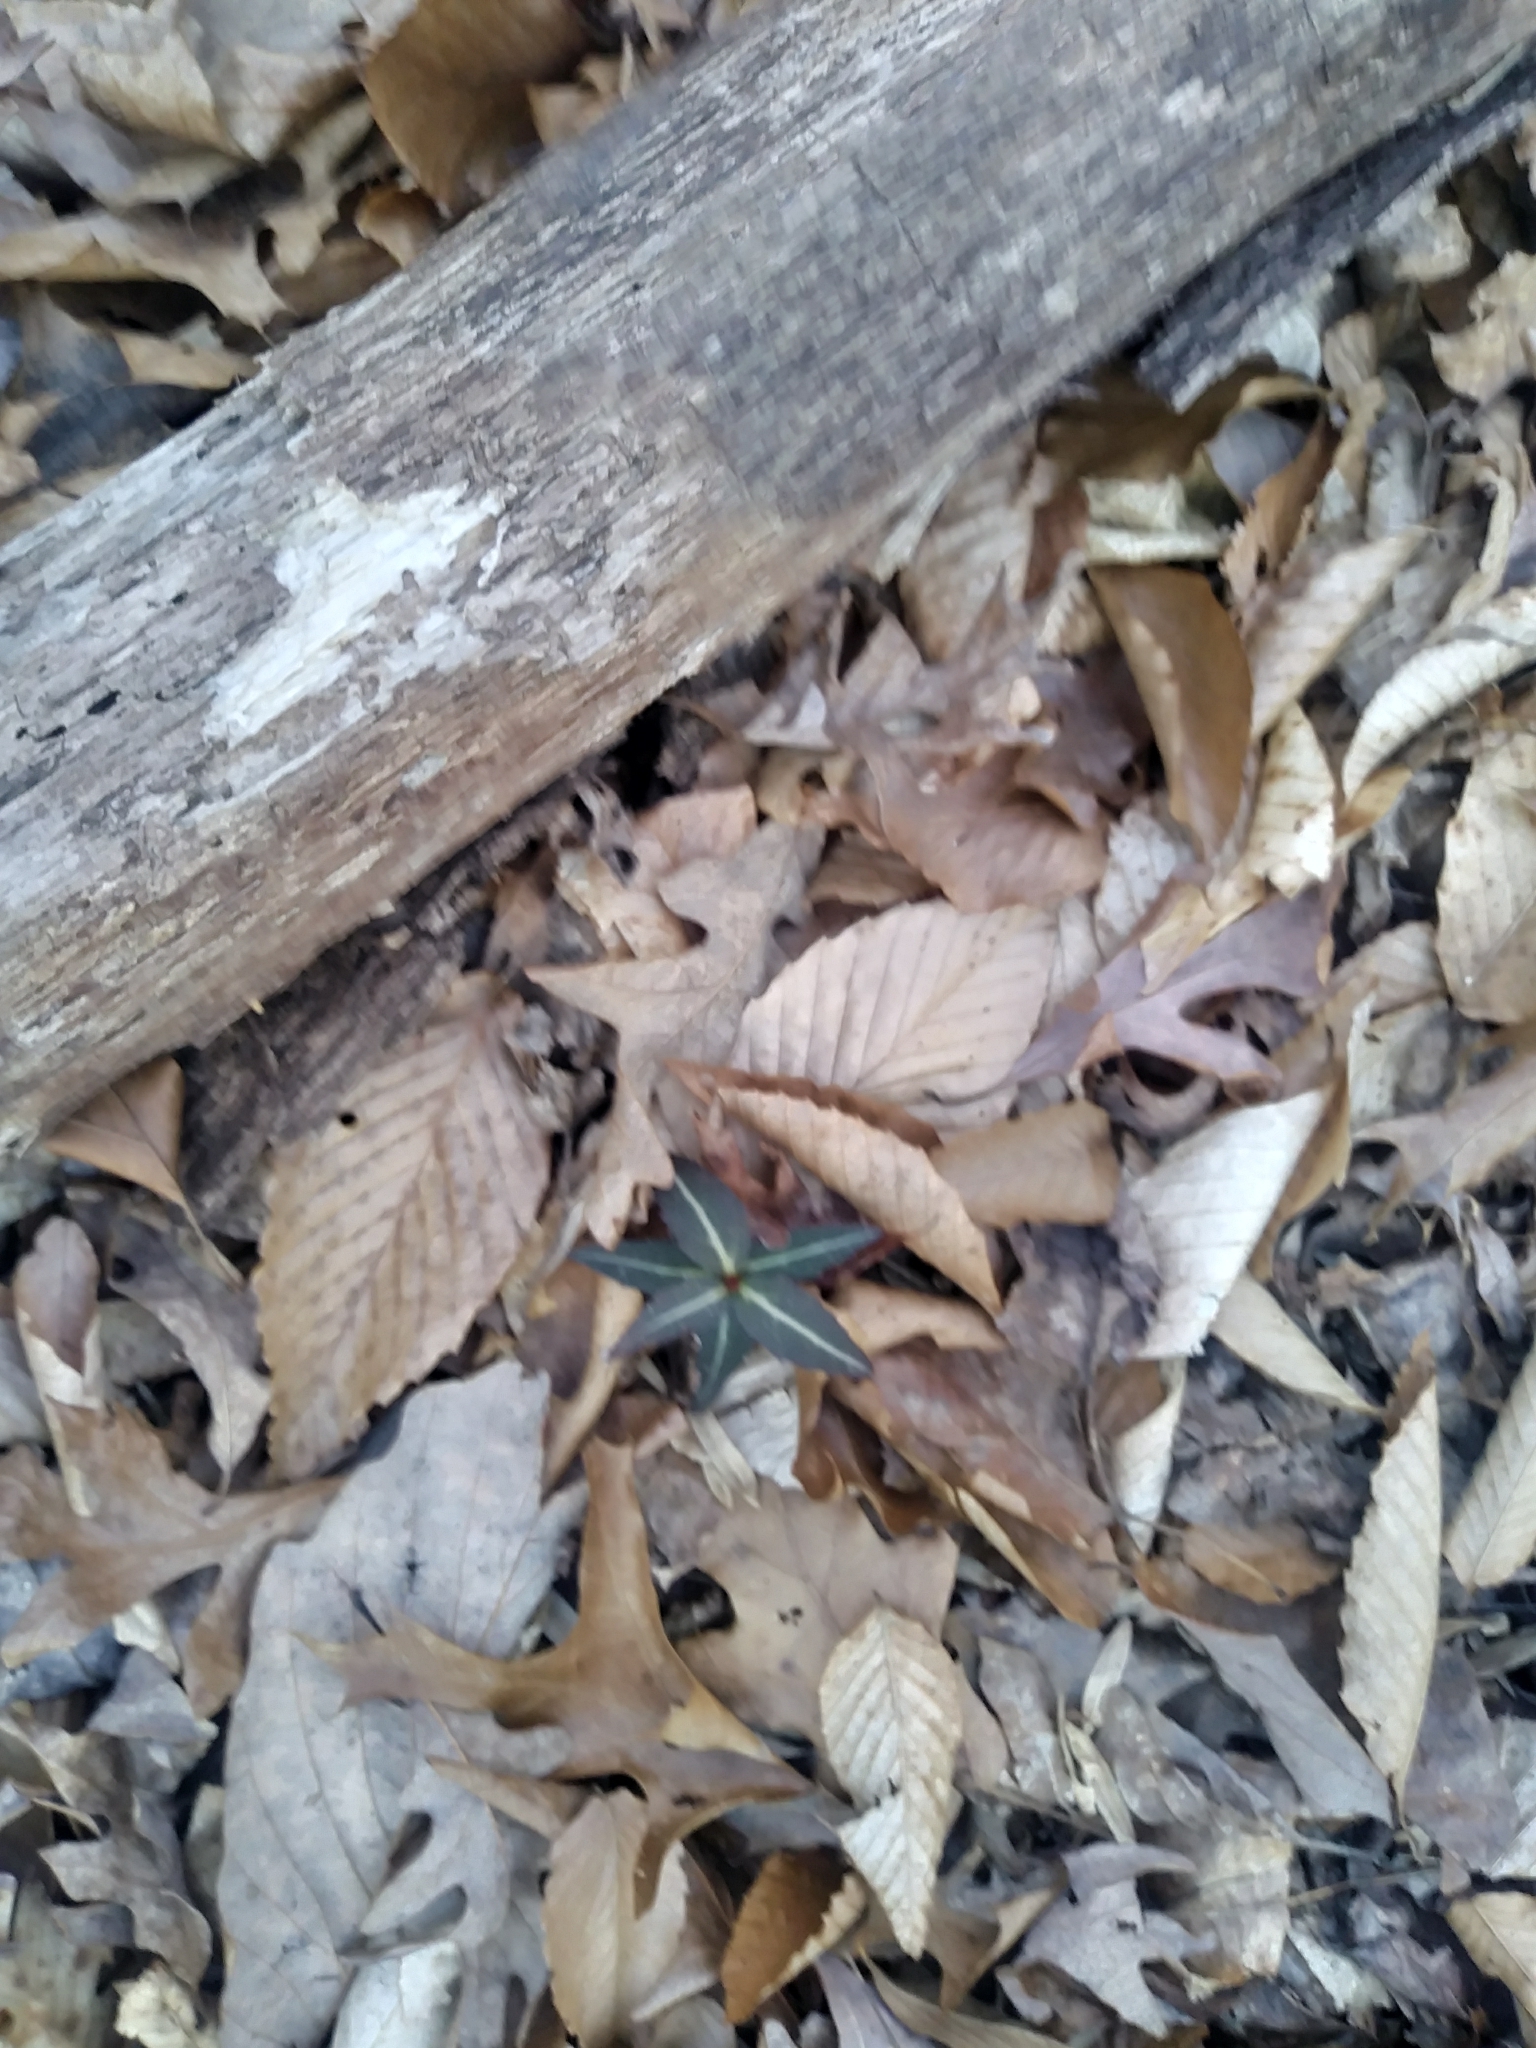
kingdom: Plantae
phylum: Tracheophyta
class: Magnoliopsida
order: Ericales
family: Ericaceae
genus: Chimaphila
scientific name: Chimaphila maculata
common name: Spotted pipsissewa
